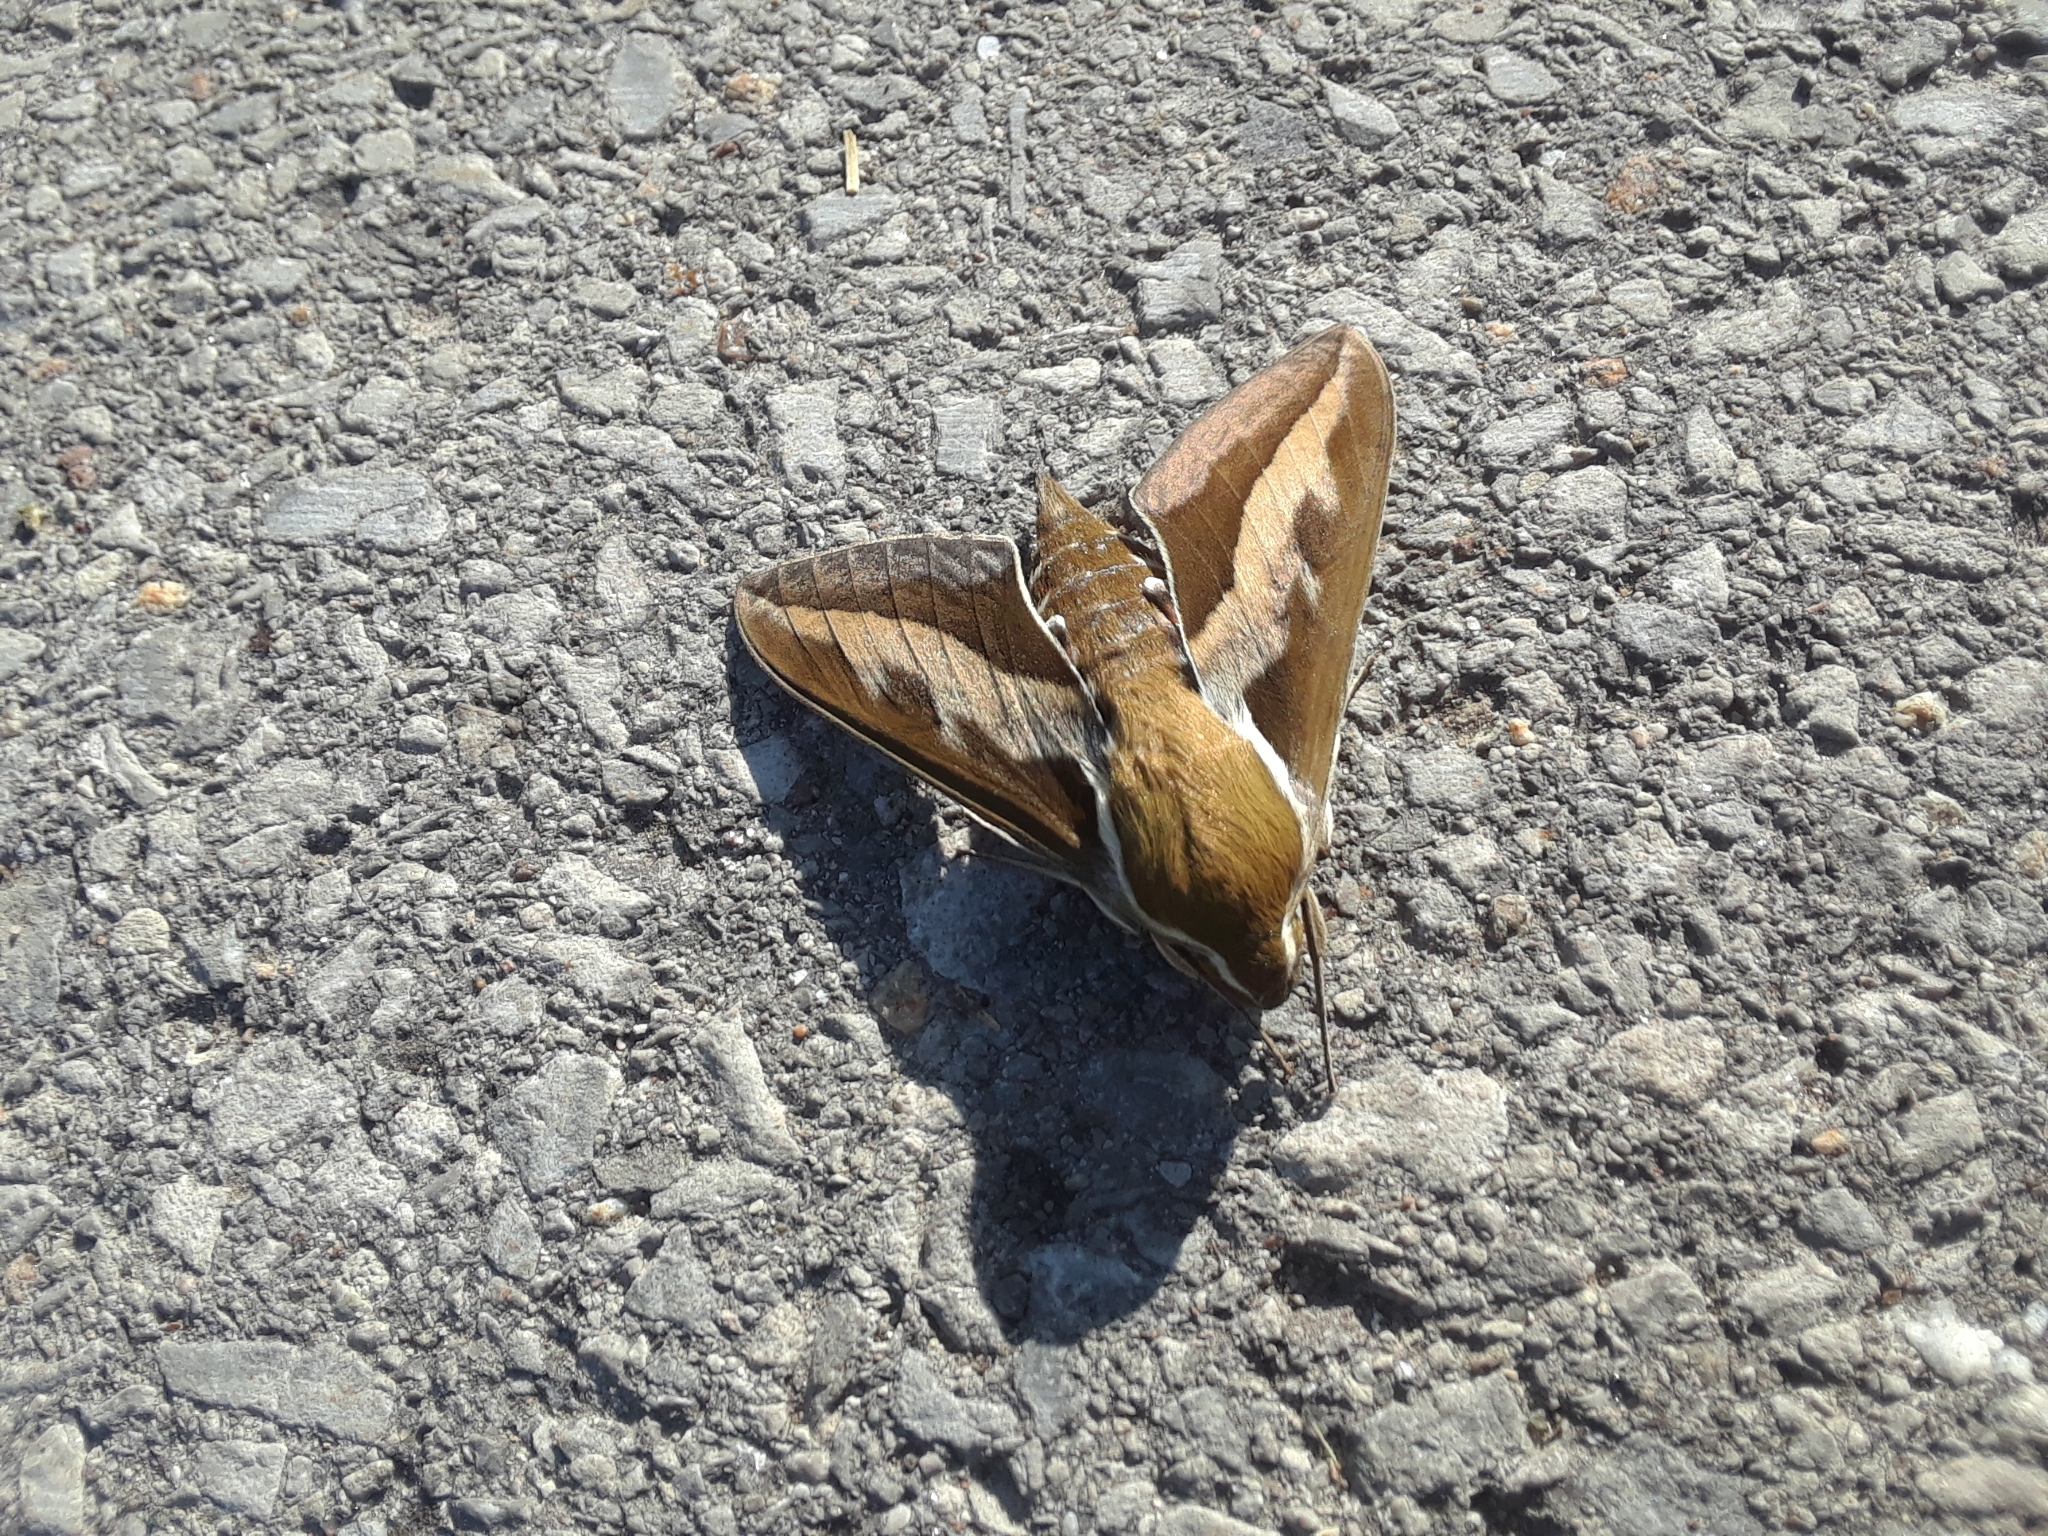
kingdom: Animalia
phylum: Arthropoda
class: Insecta
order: Lepidoptera
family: Sphingidae
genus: Hyles
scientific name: Hyles gallii
